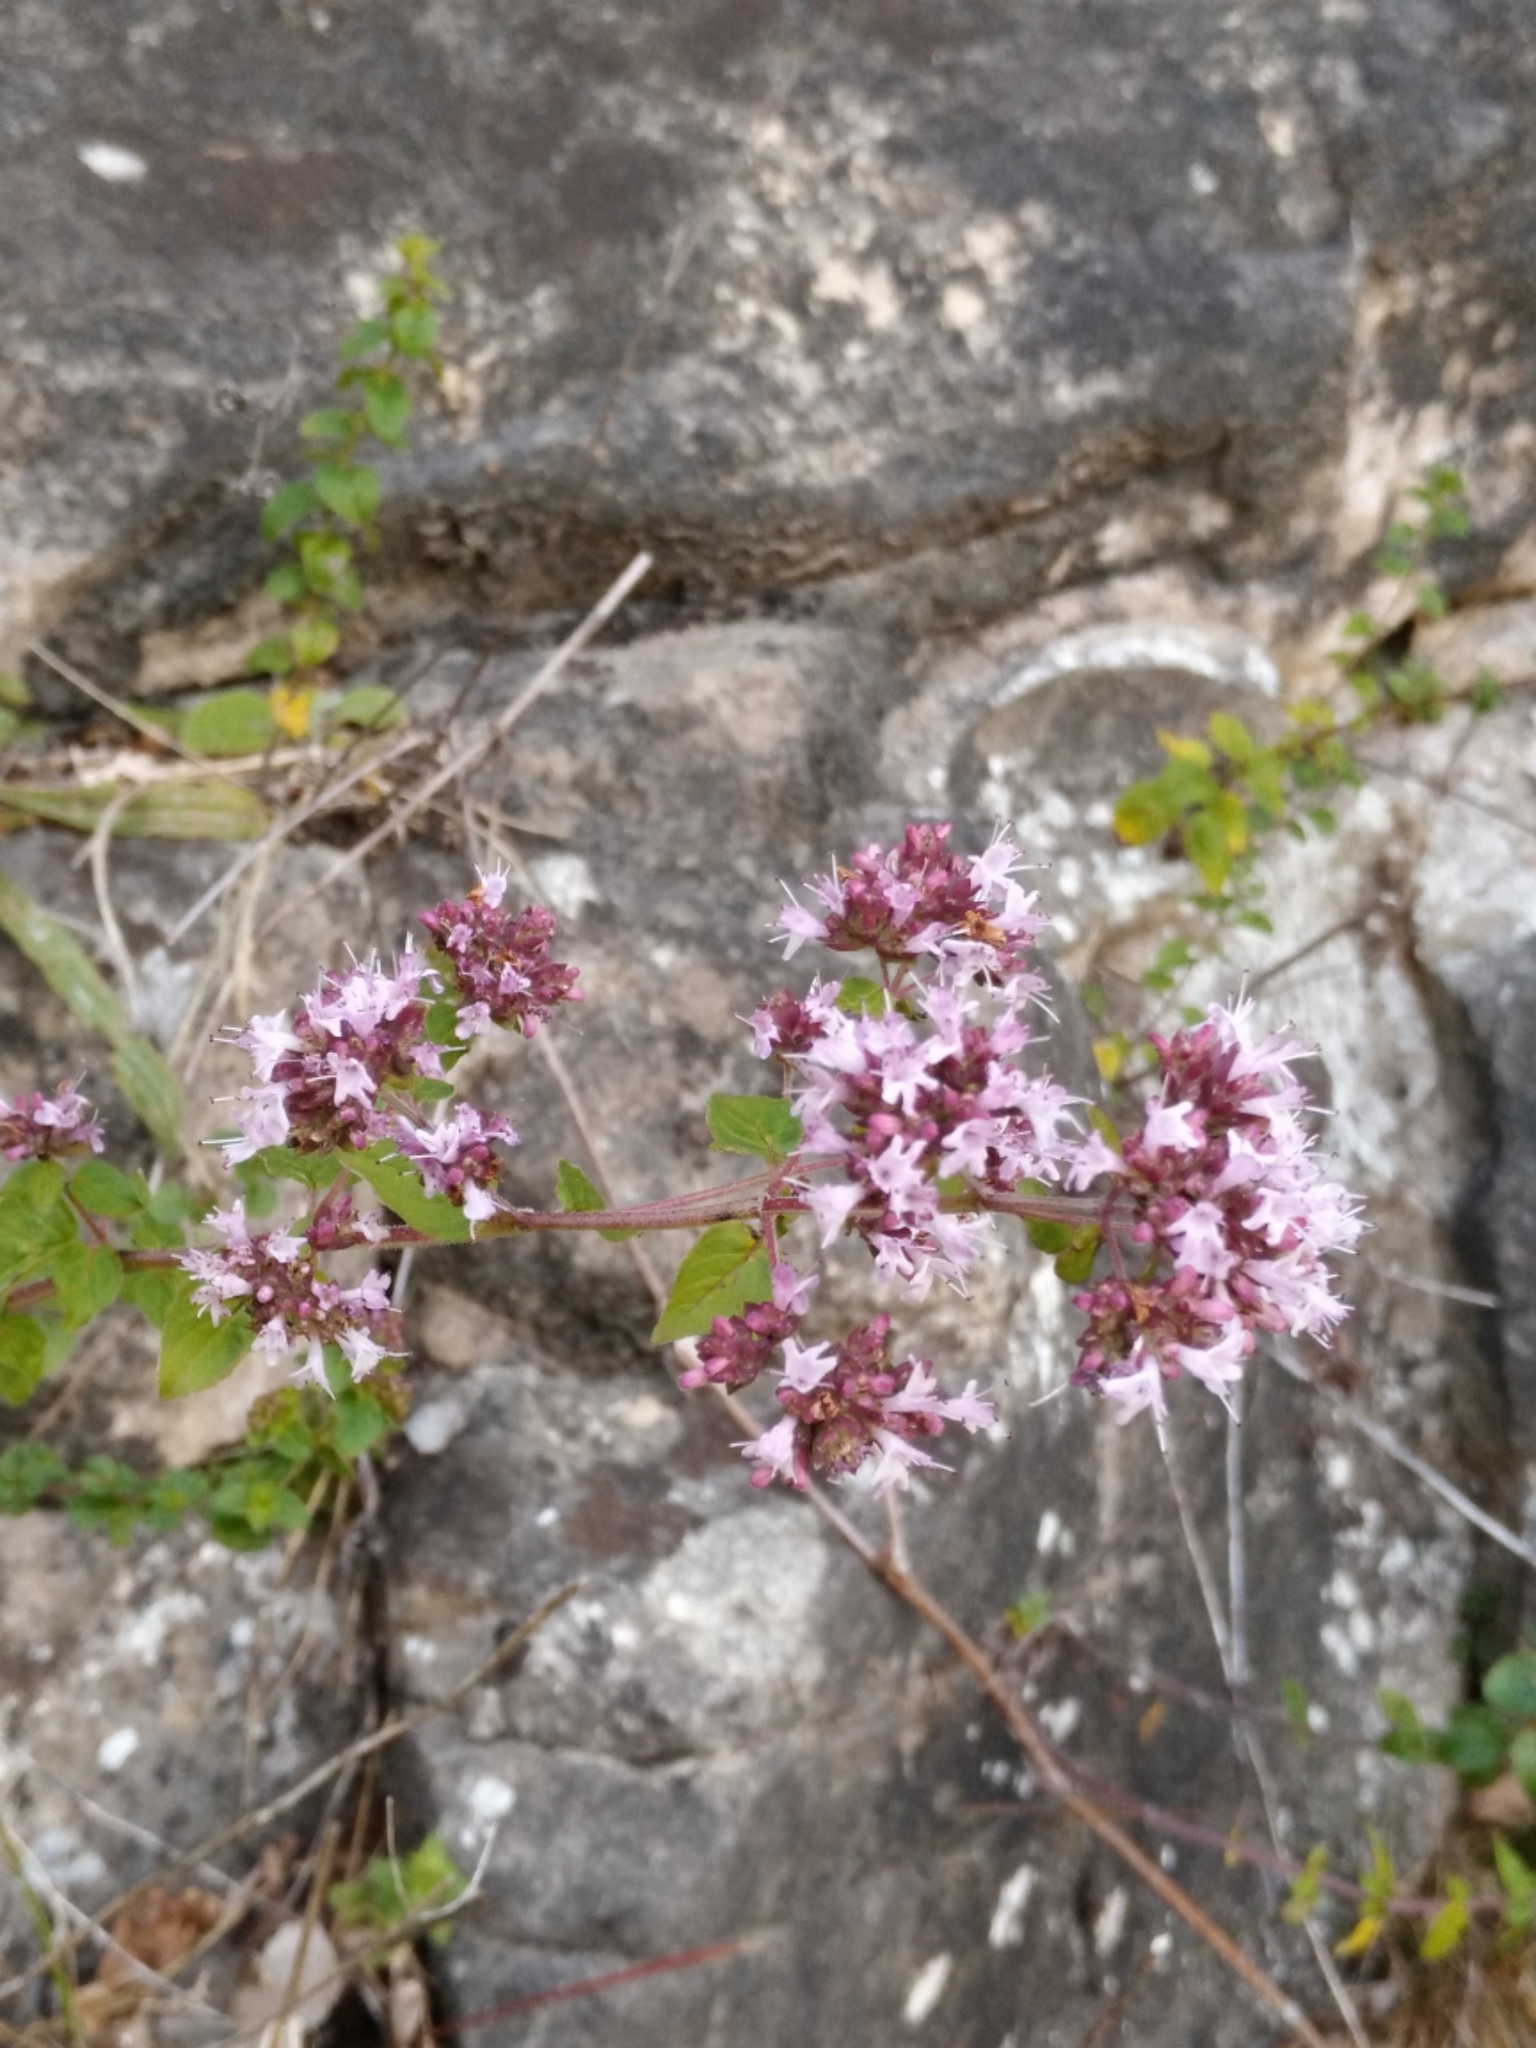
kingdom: Plantae
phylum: Tracheophyta
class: Magnoliopsida
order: Lamiales
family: Lamiaceae
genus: Origanum
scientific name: Origanum vulgare
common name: Wild marjoram
